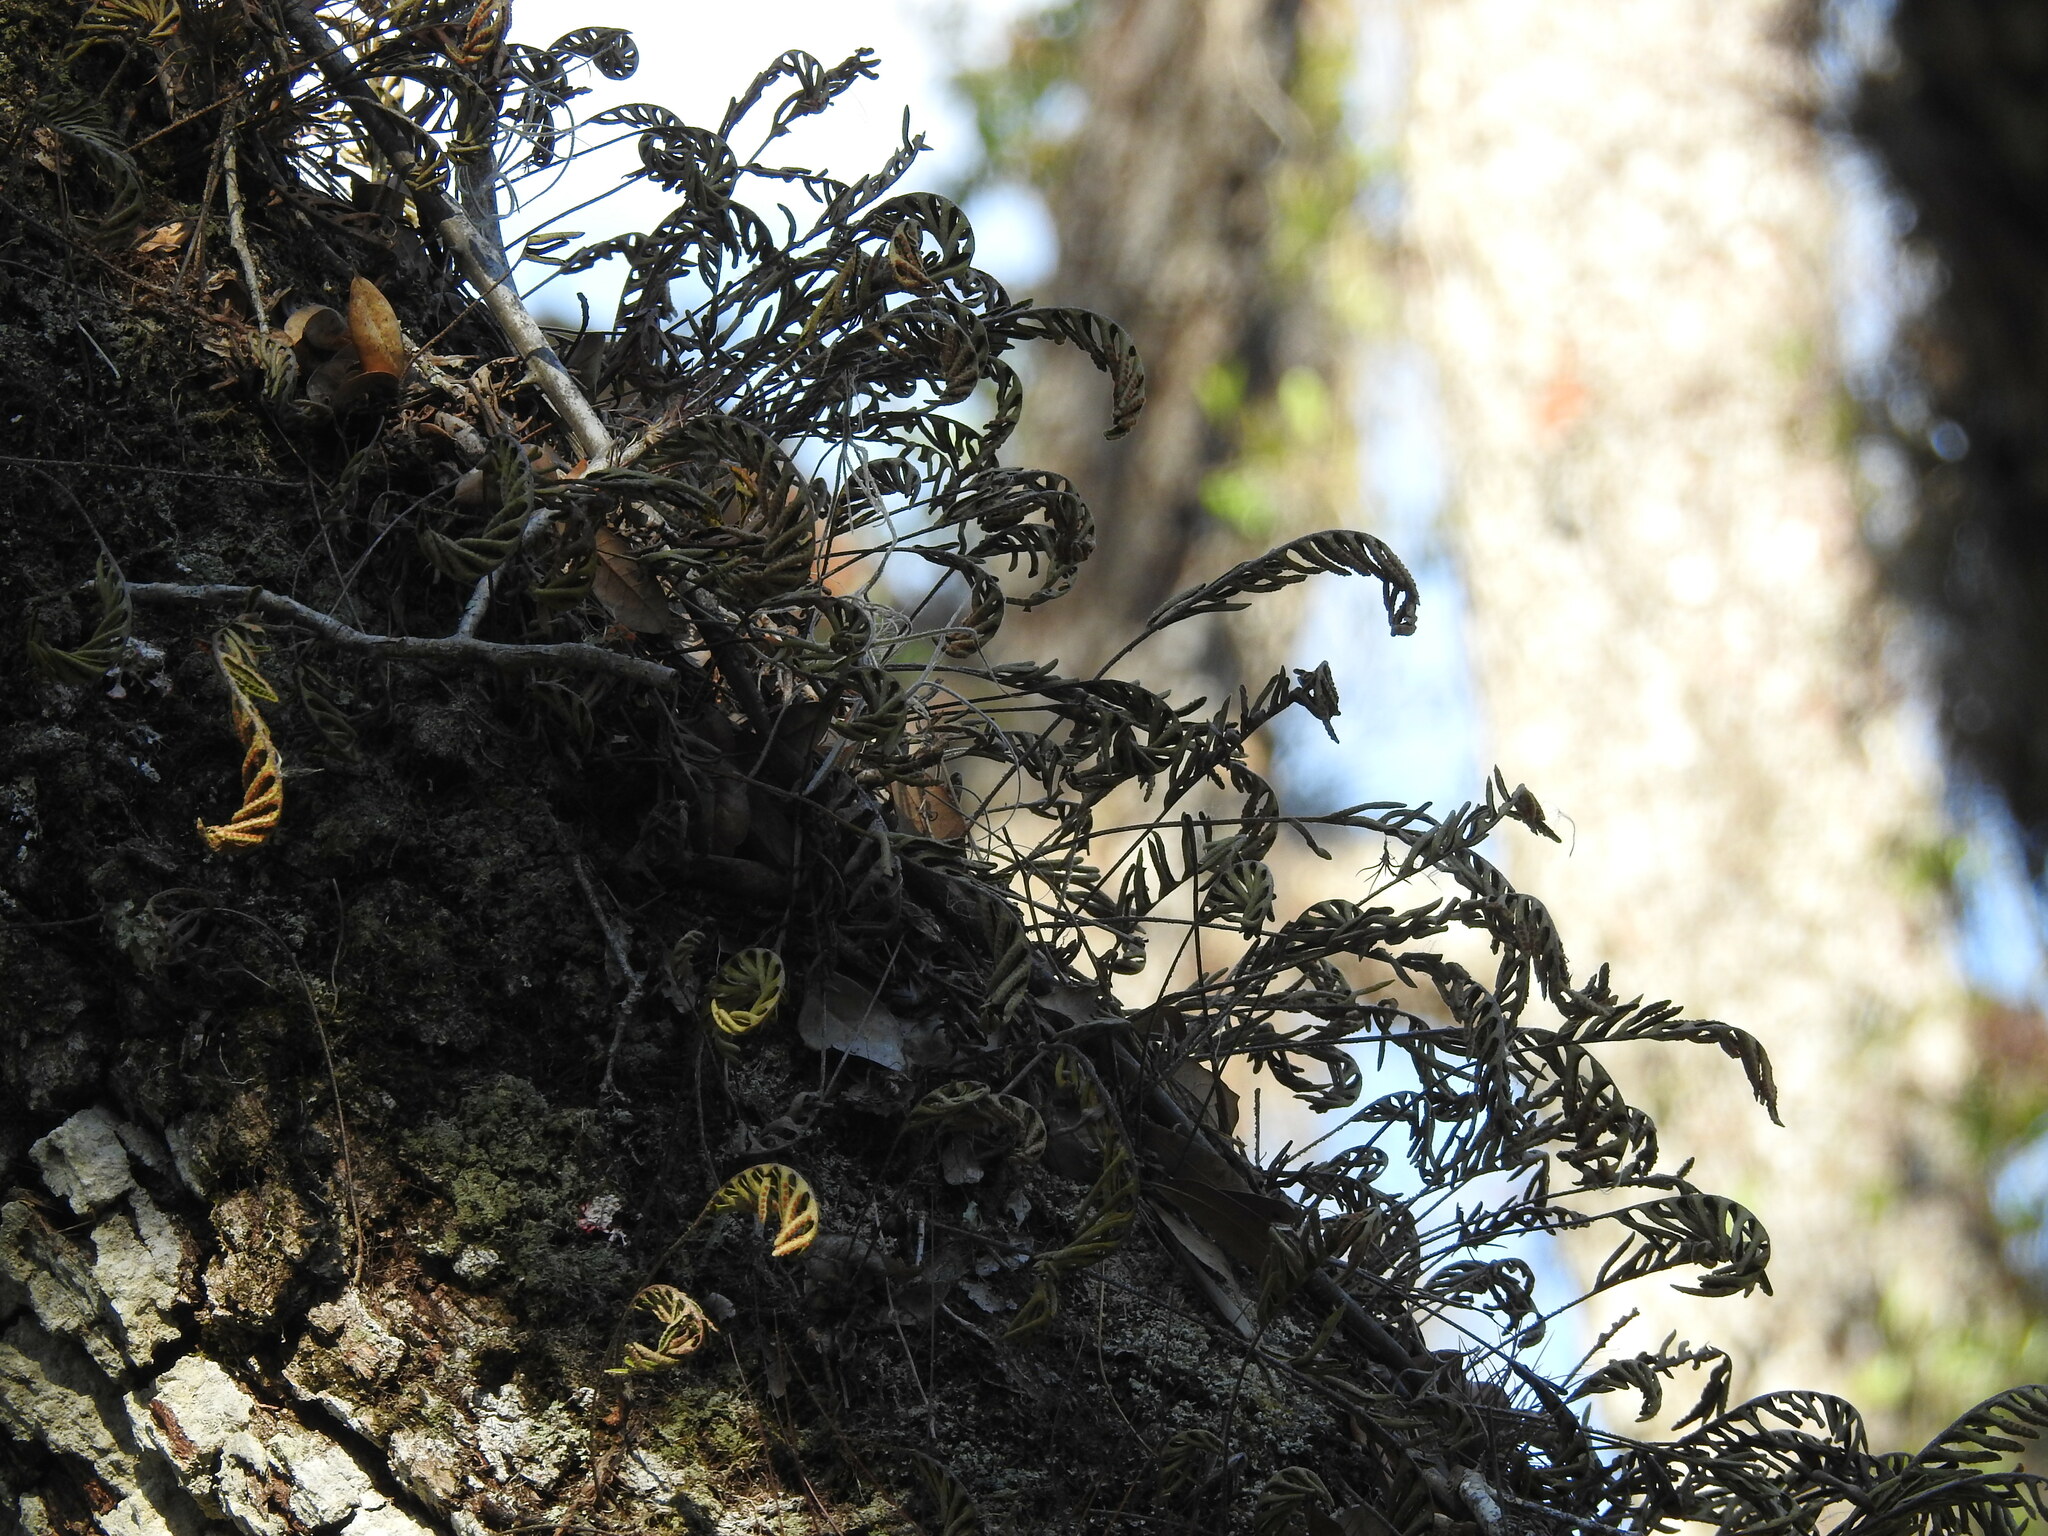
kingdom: Plantae
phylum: Tracheophyta
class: Polypodiopsida
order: Polypodiales
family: Polypodiaceae
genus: Pleopeltis
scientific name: Pleopeltis michauxiana
